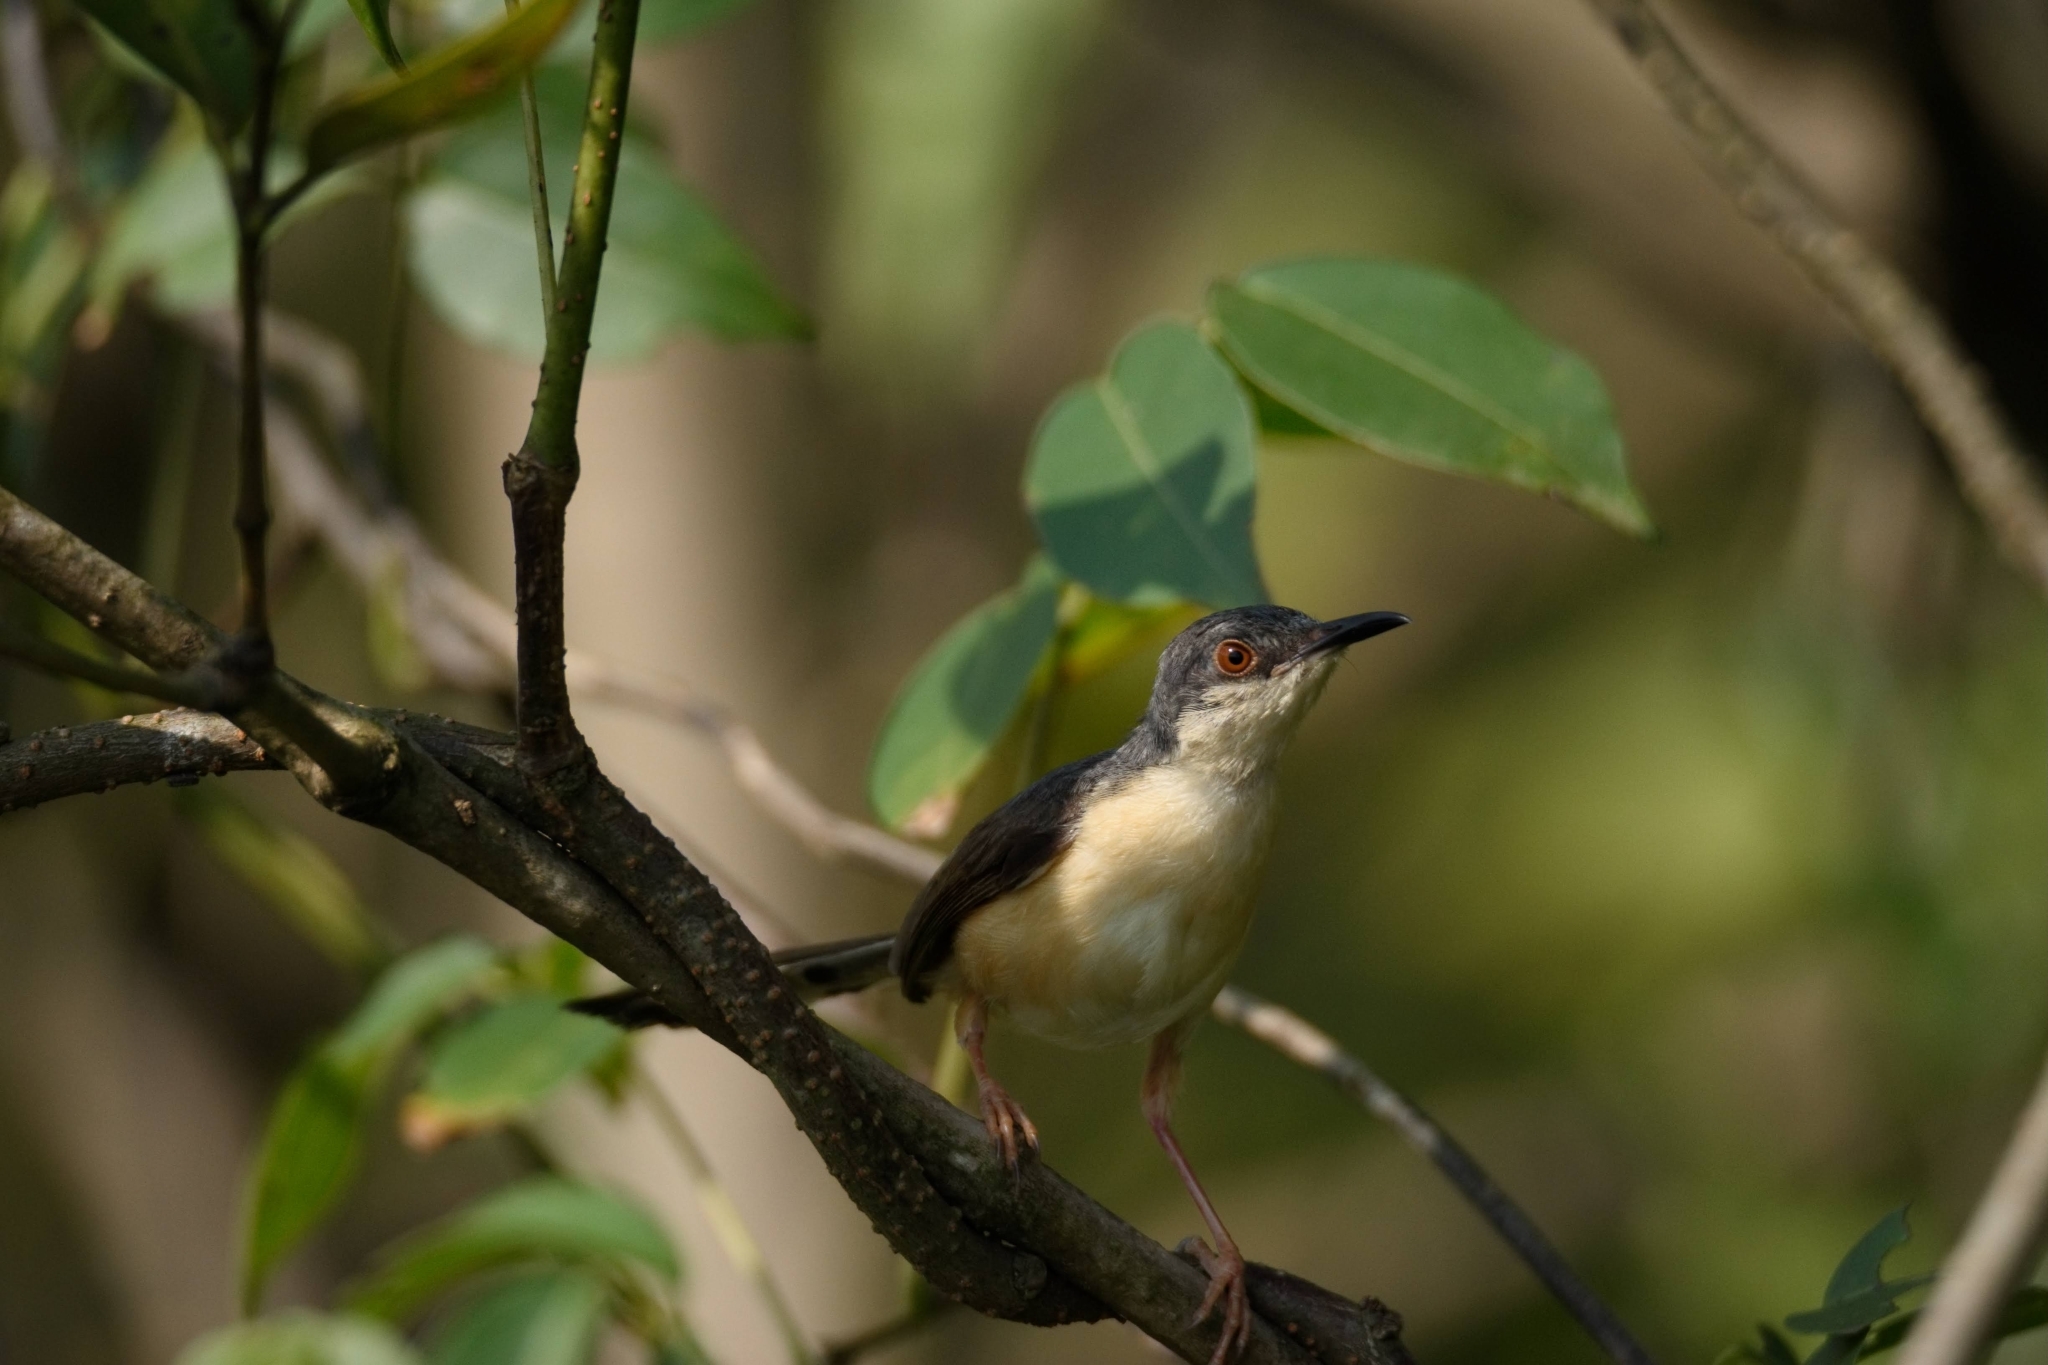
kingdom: Animalia
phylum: Chordata
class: Aves
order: Passeriformes
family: Cisticolidae
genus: Prinia
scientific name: Prinia socialis
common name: Ashy prinia
